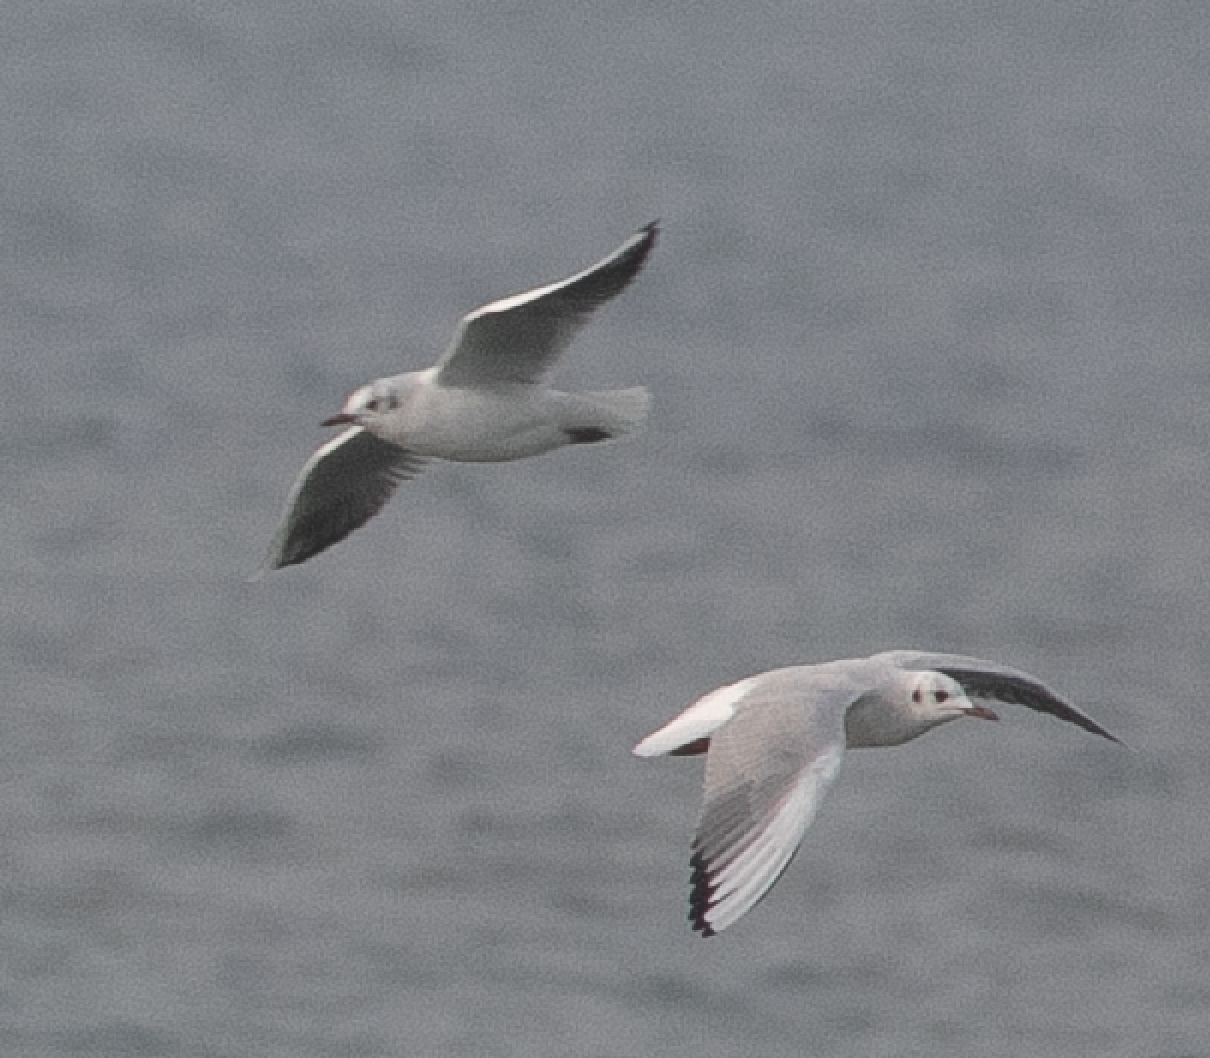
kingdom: Animalia
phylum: Chordata
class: Aves
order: Charadriiformes
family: Laridae
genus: Chroicocephalus
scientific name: Chroicocephalus ridibundus
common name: Black-headed gull
